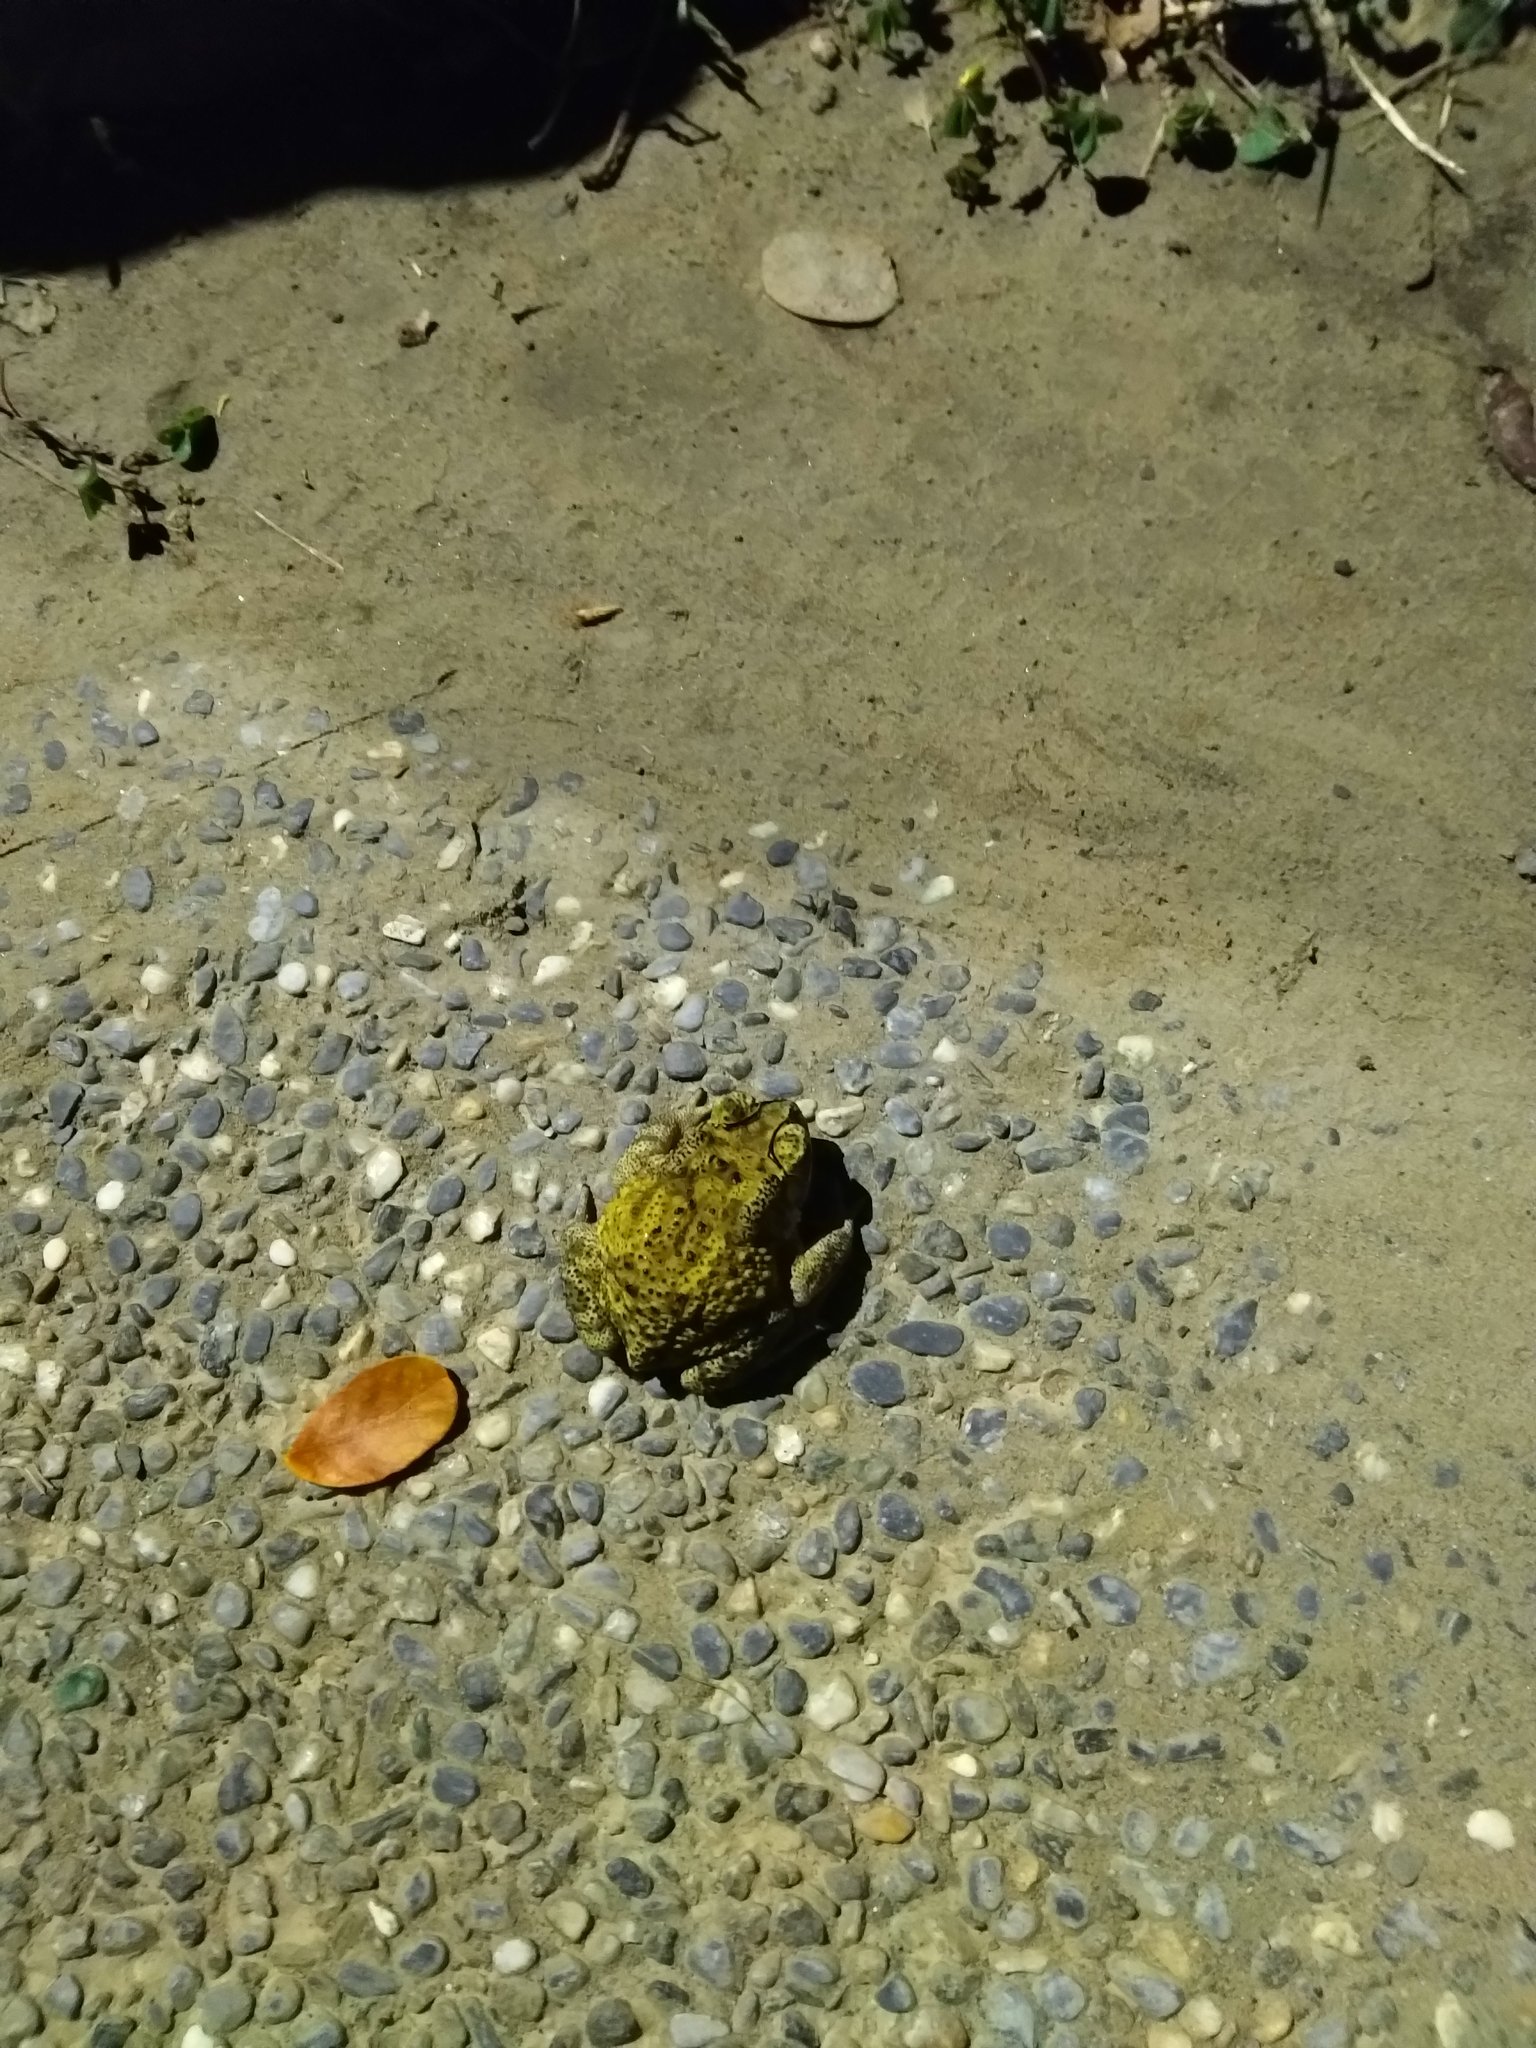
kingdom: Animalia
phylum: Chordata
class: Amphibia
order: Anura
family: Bufonidae
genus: Duttaphrynus
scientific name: Duttaphrynus melanostictus
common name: Common sunda toad
